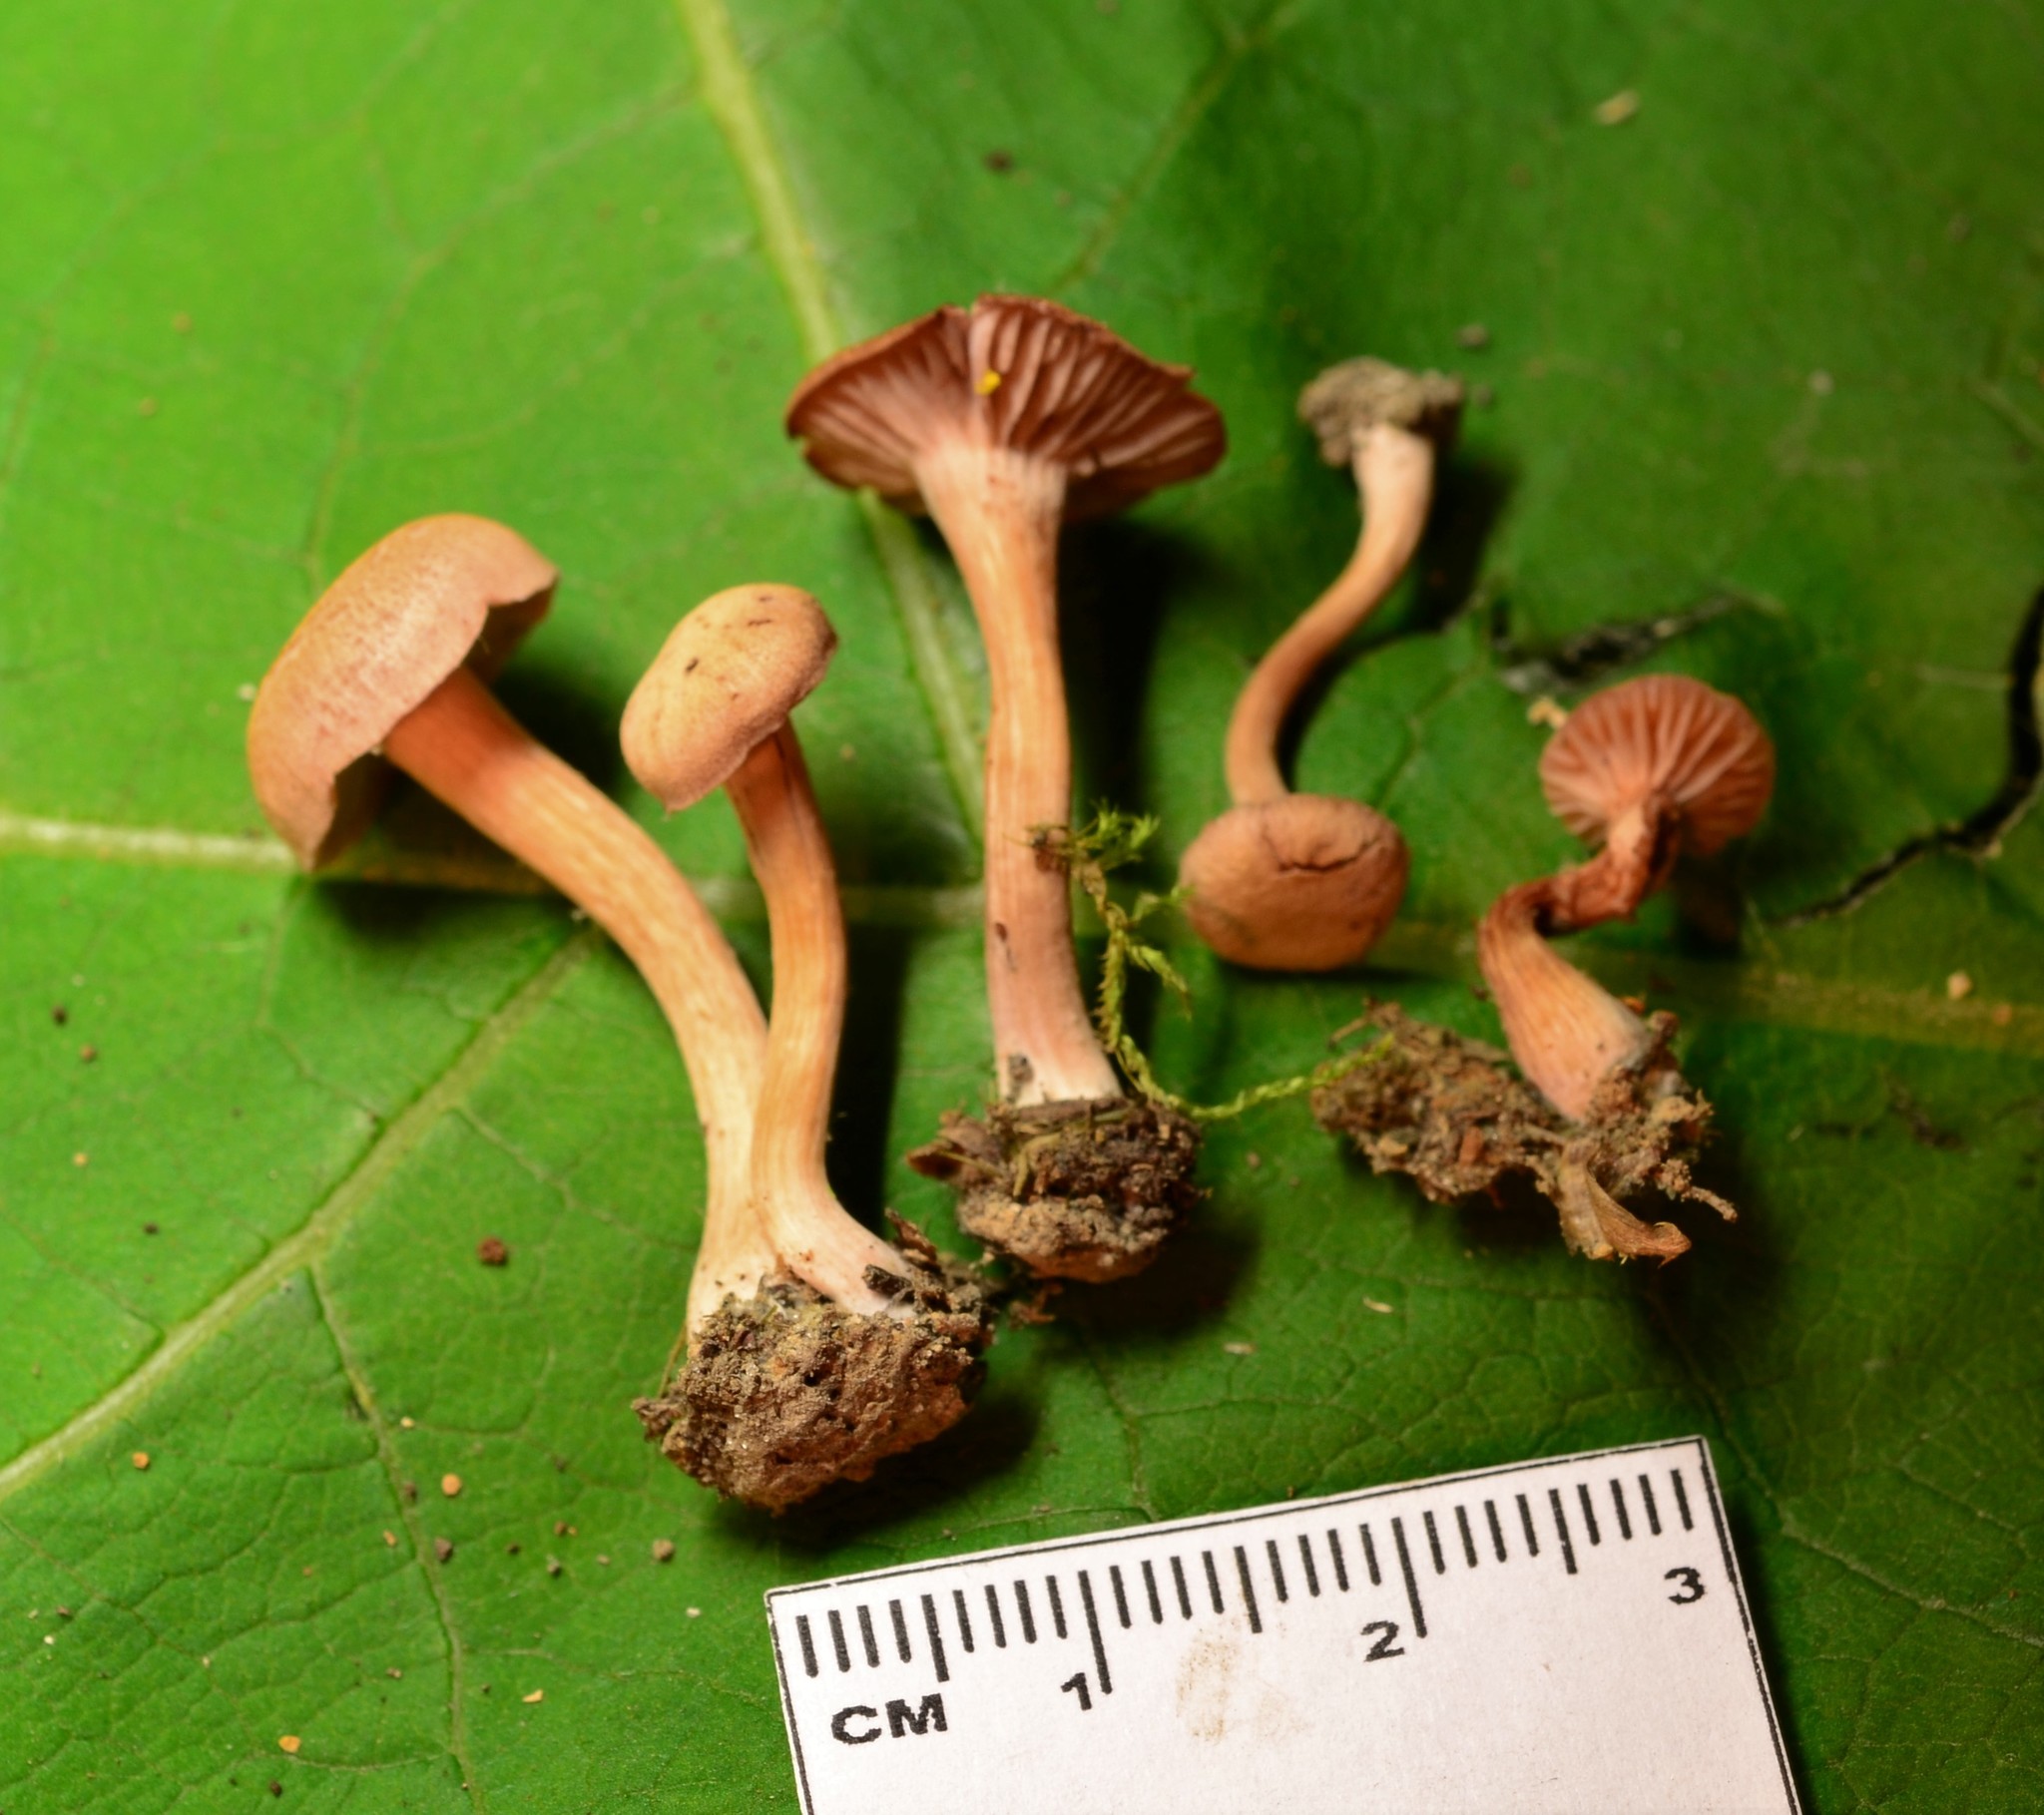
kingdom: Fungi
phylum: Basidiomycota
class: Agaricomycetes
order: Agaricales
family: Hydnangiaceae
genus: Laccaria
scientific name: Laccaria laccata
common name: Deceiver
